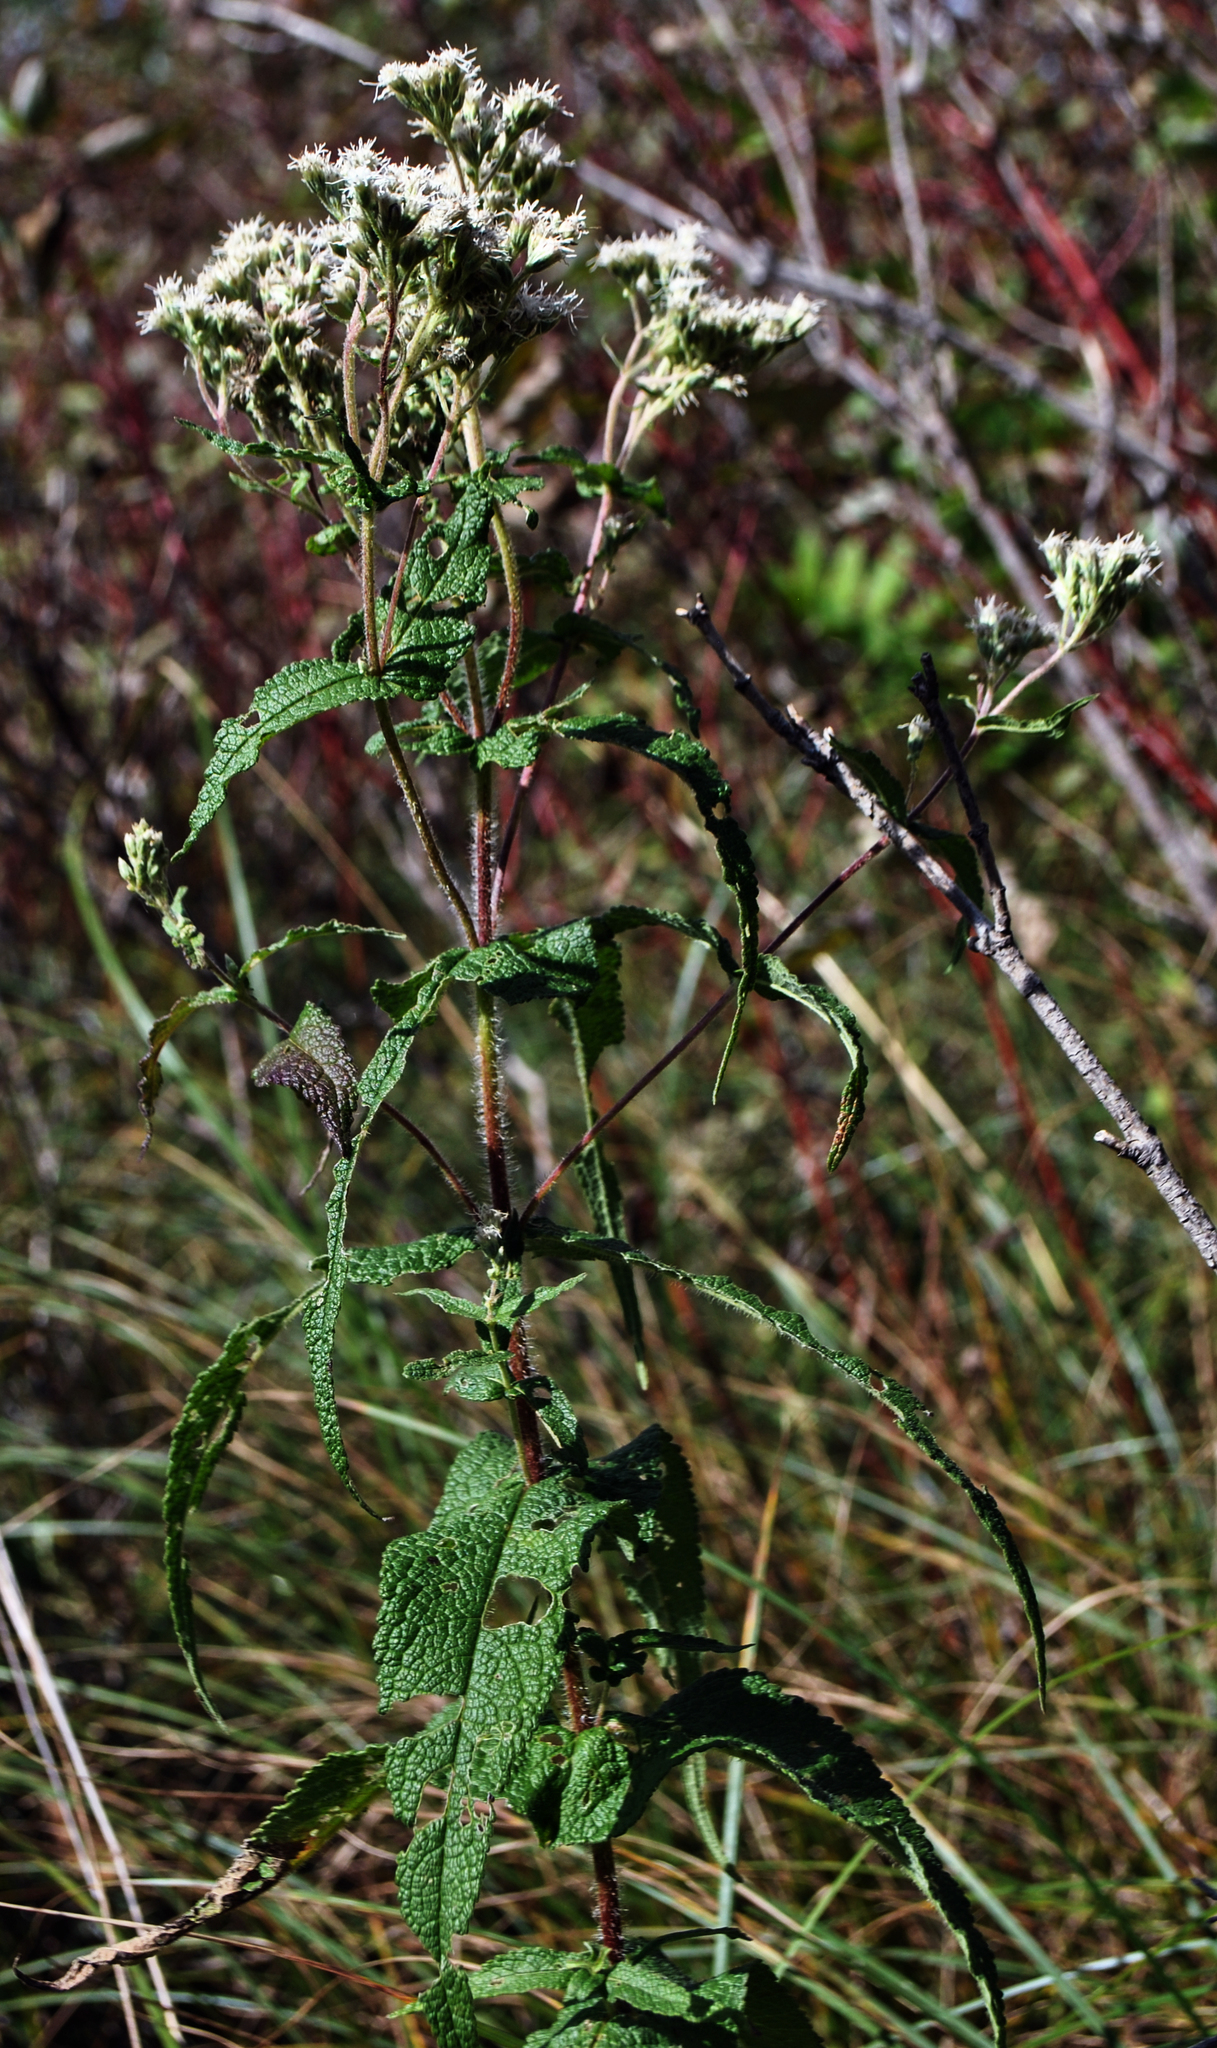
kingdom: Plantae
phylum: Tracheophyta
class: Magnoliopsida
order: Asterales
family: Asteraceae
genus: Eupatorium
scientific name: Eupatorium perfoliatum
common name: Boneset
